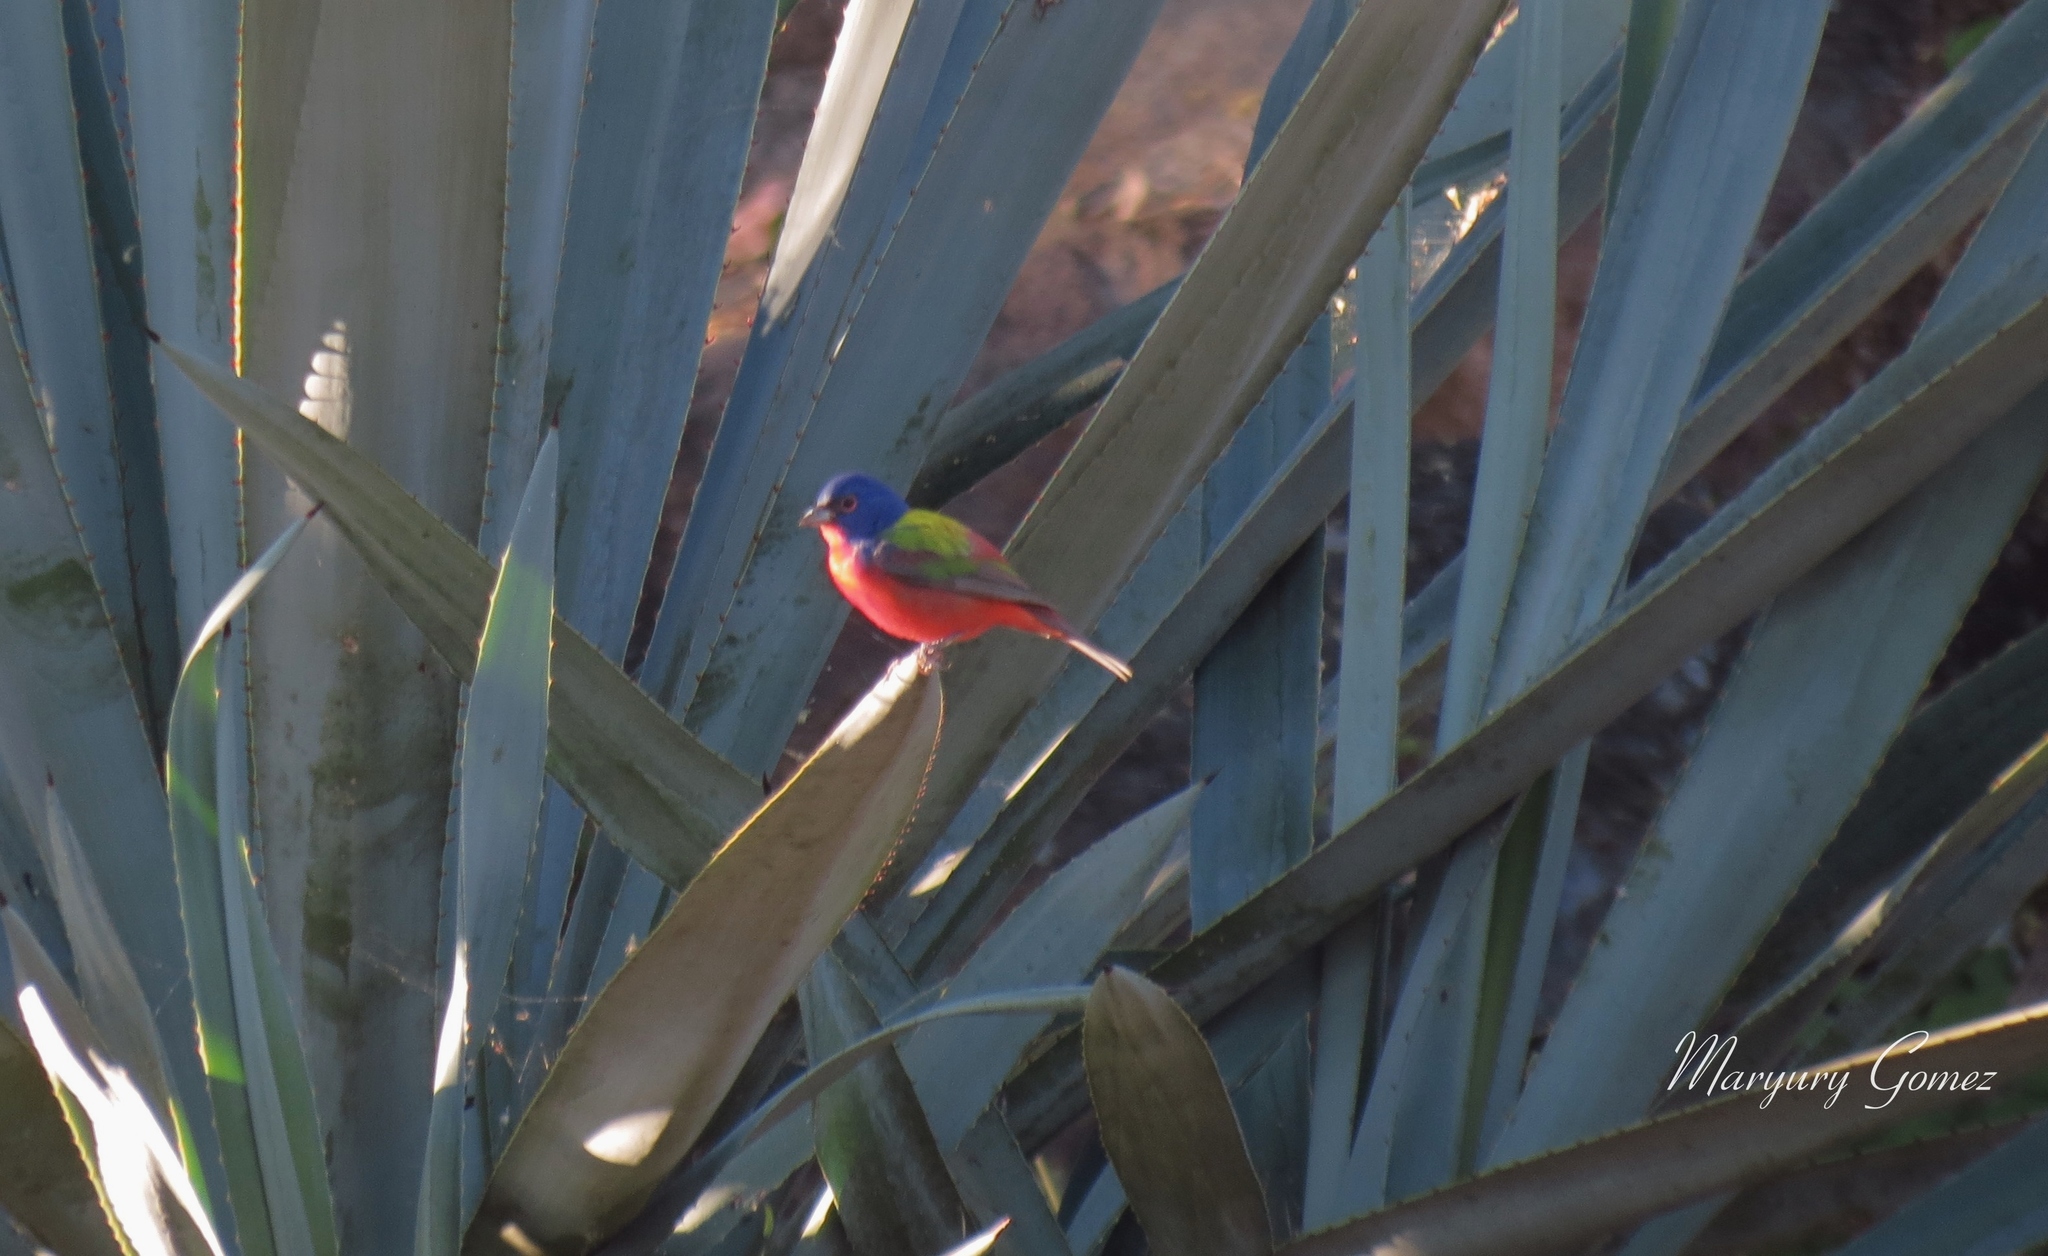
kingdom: Animalia
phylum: Chordata
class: Aves
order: Passeriformes
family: Cardinalidae
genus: Passerina
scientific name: Passerina ciris
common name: Painted bunting
